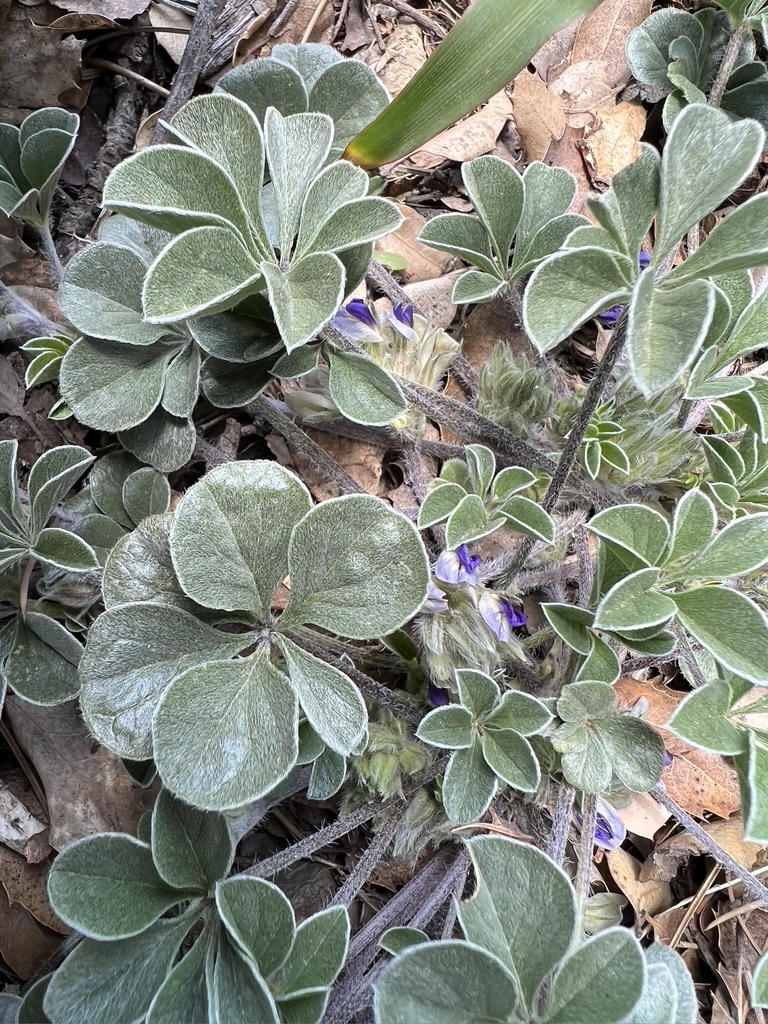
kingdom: Plantae
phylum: Tracheophyta
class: Magnoliopsida
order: Fabales
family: Fabaceae
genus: Pediomelum
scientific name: Pediomelum californicum
